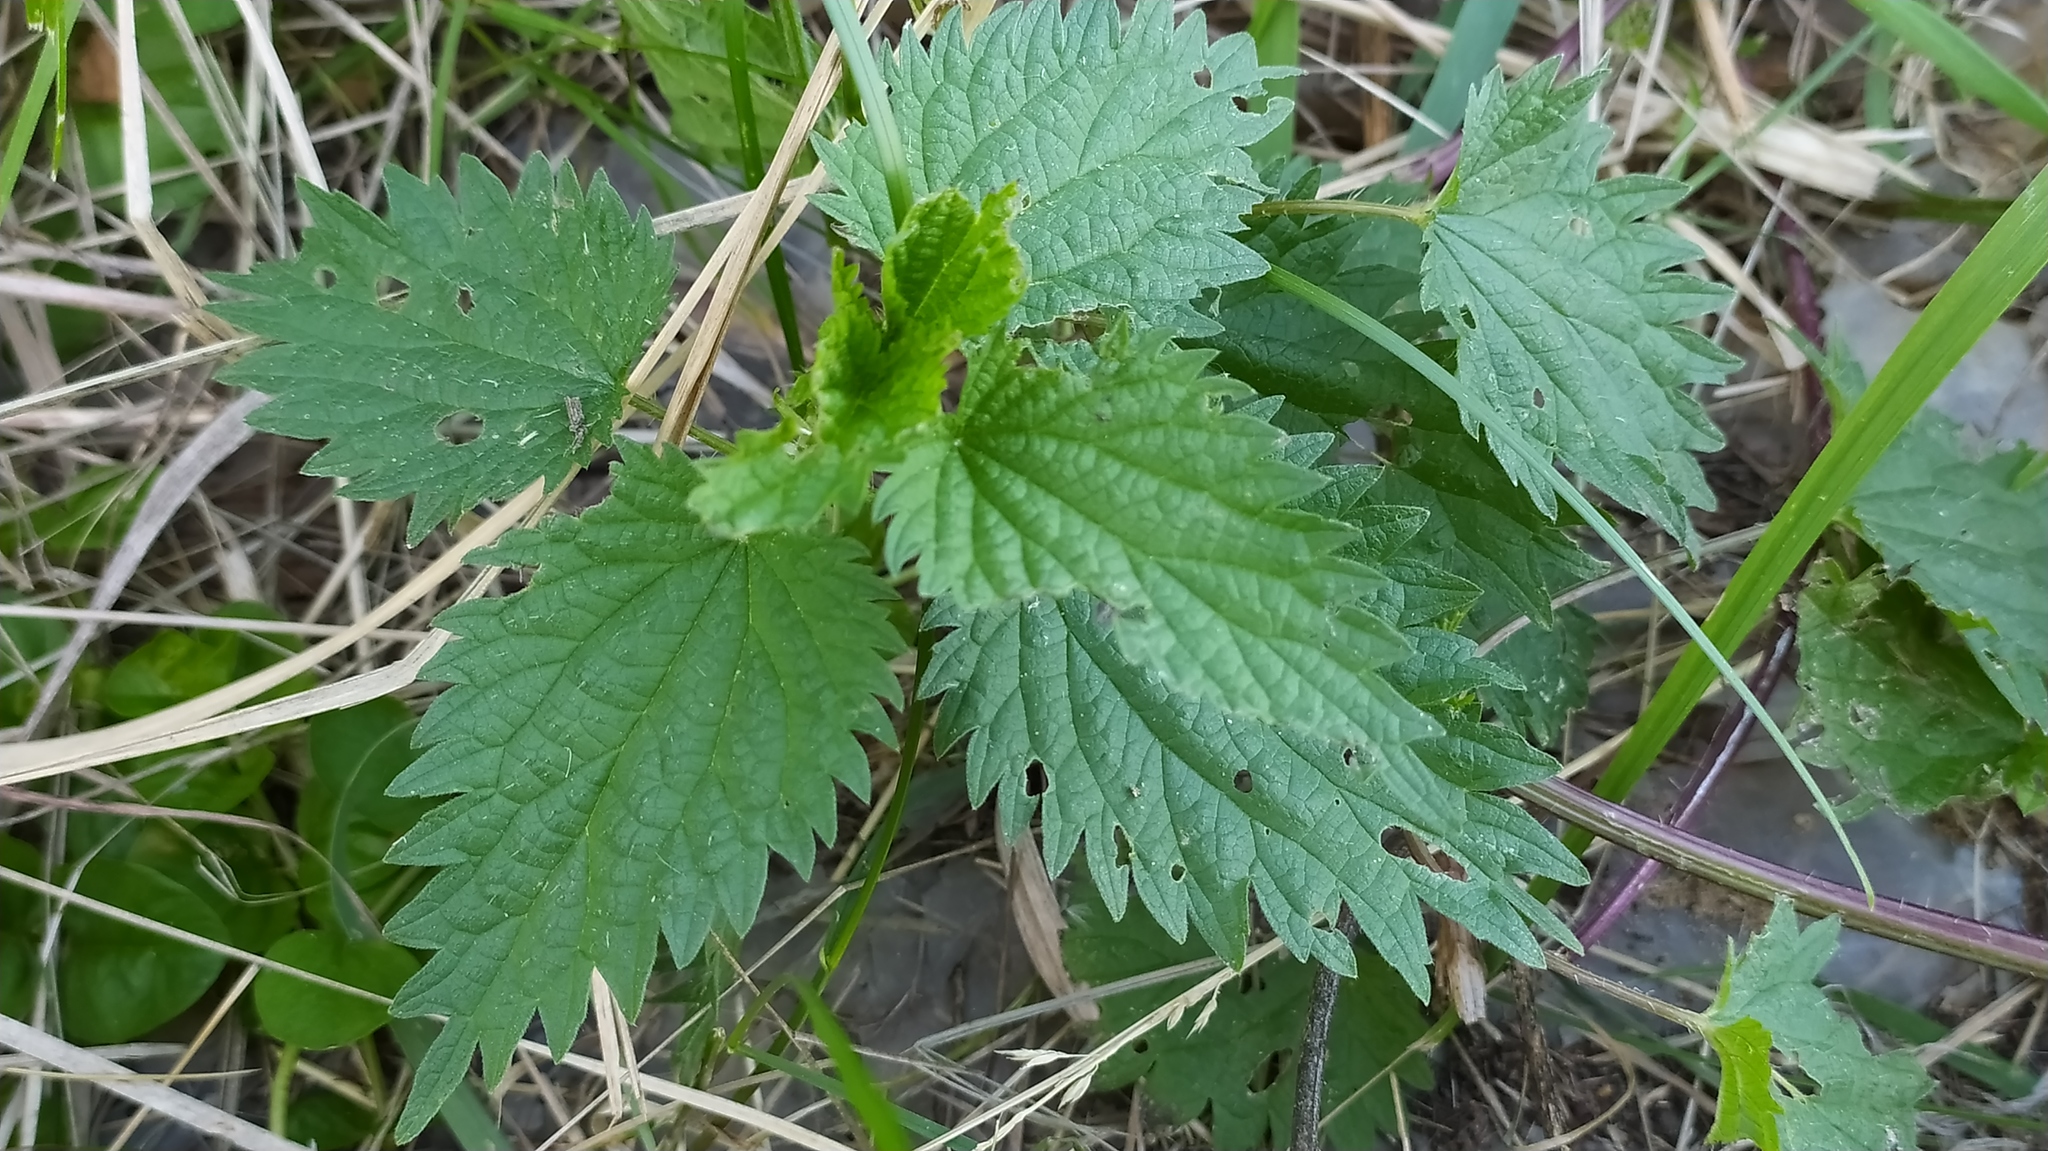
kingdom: Plantae
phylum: Tracheophyta
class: Magnoliopsida
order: Rosales
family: Urticaceae
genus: Urtica
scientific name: Urtica dioica
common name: Common nettle
